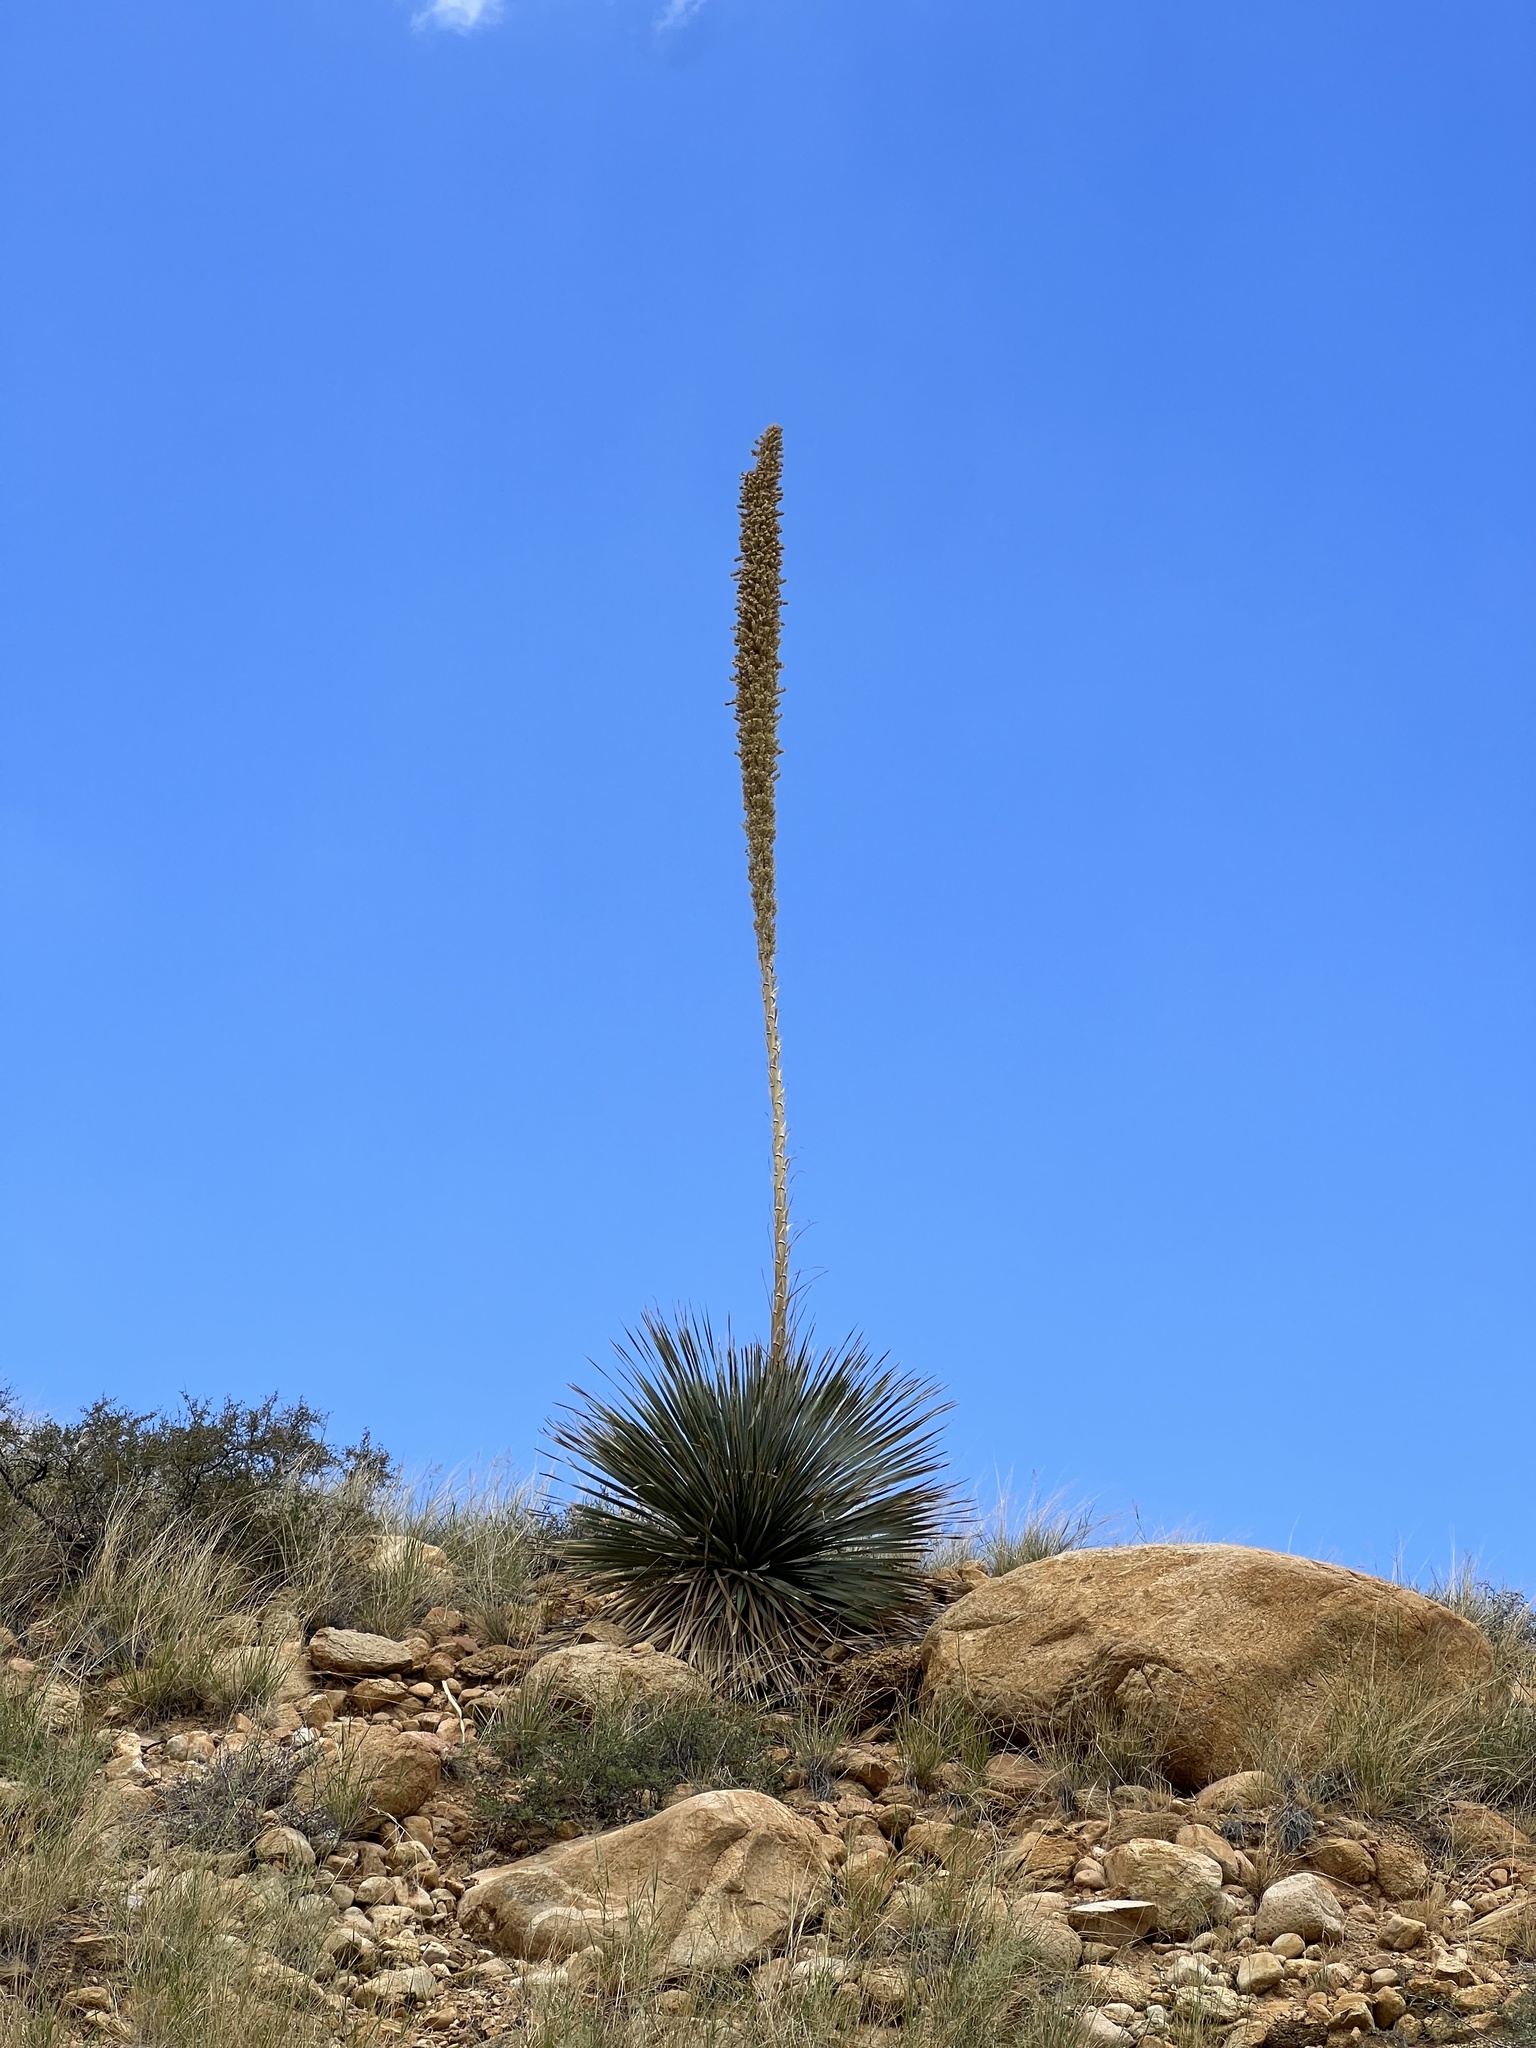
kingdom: Plantae
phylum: Tracheophyta
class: Liliopsida
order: Asparagales
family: Asparagaceae
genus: Dasylirion
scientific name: Dasylirion wheeleri
